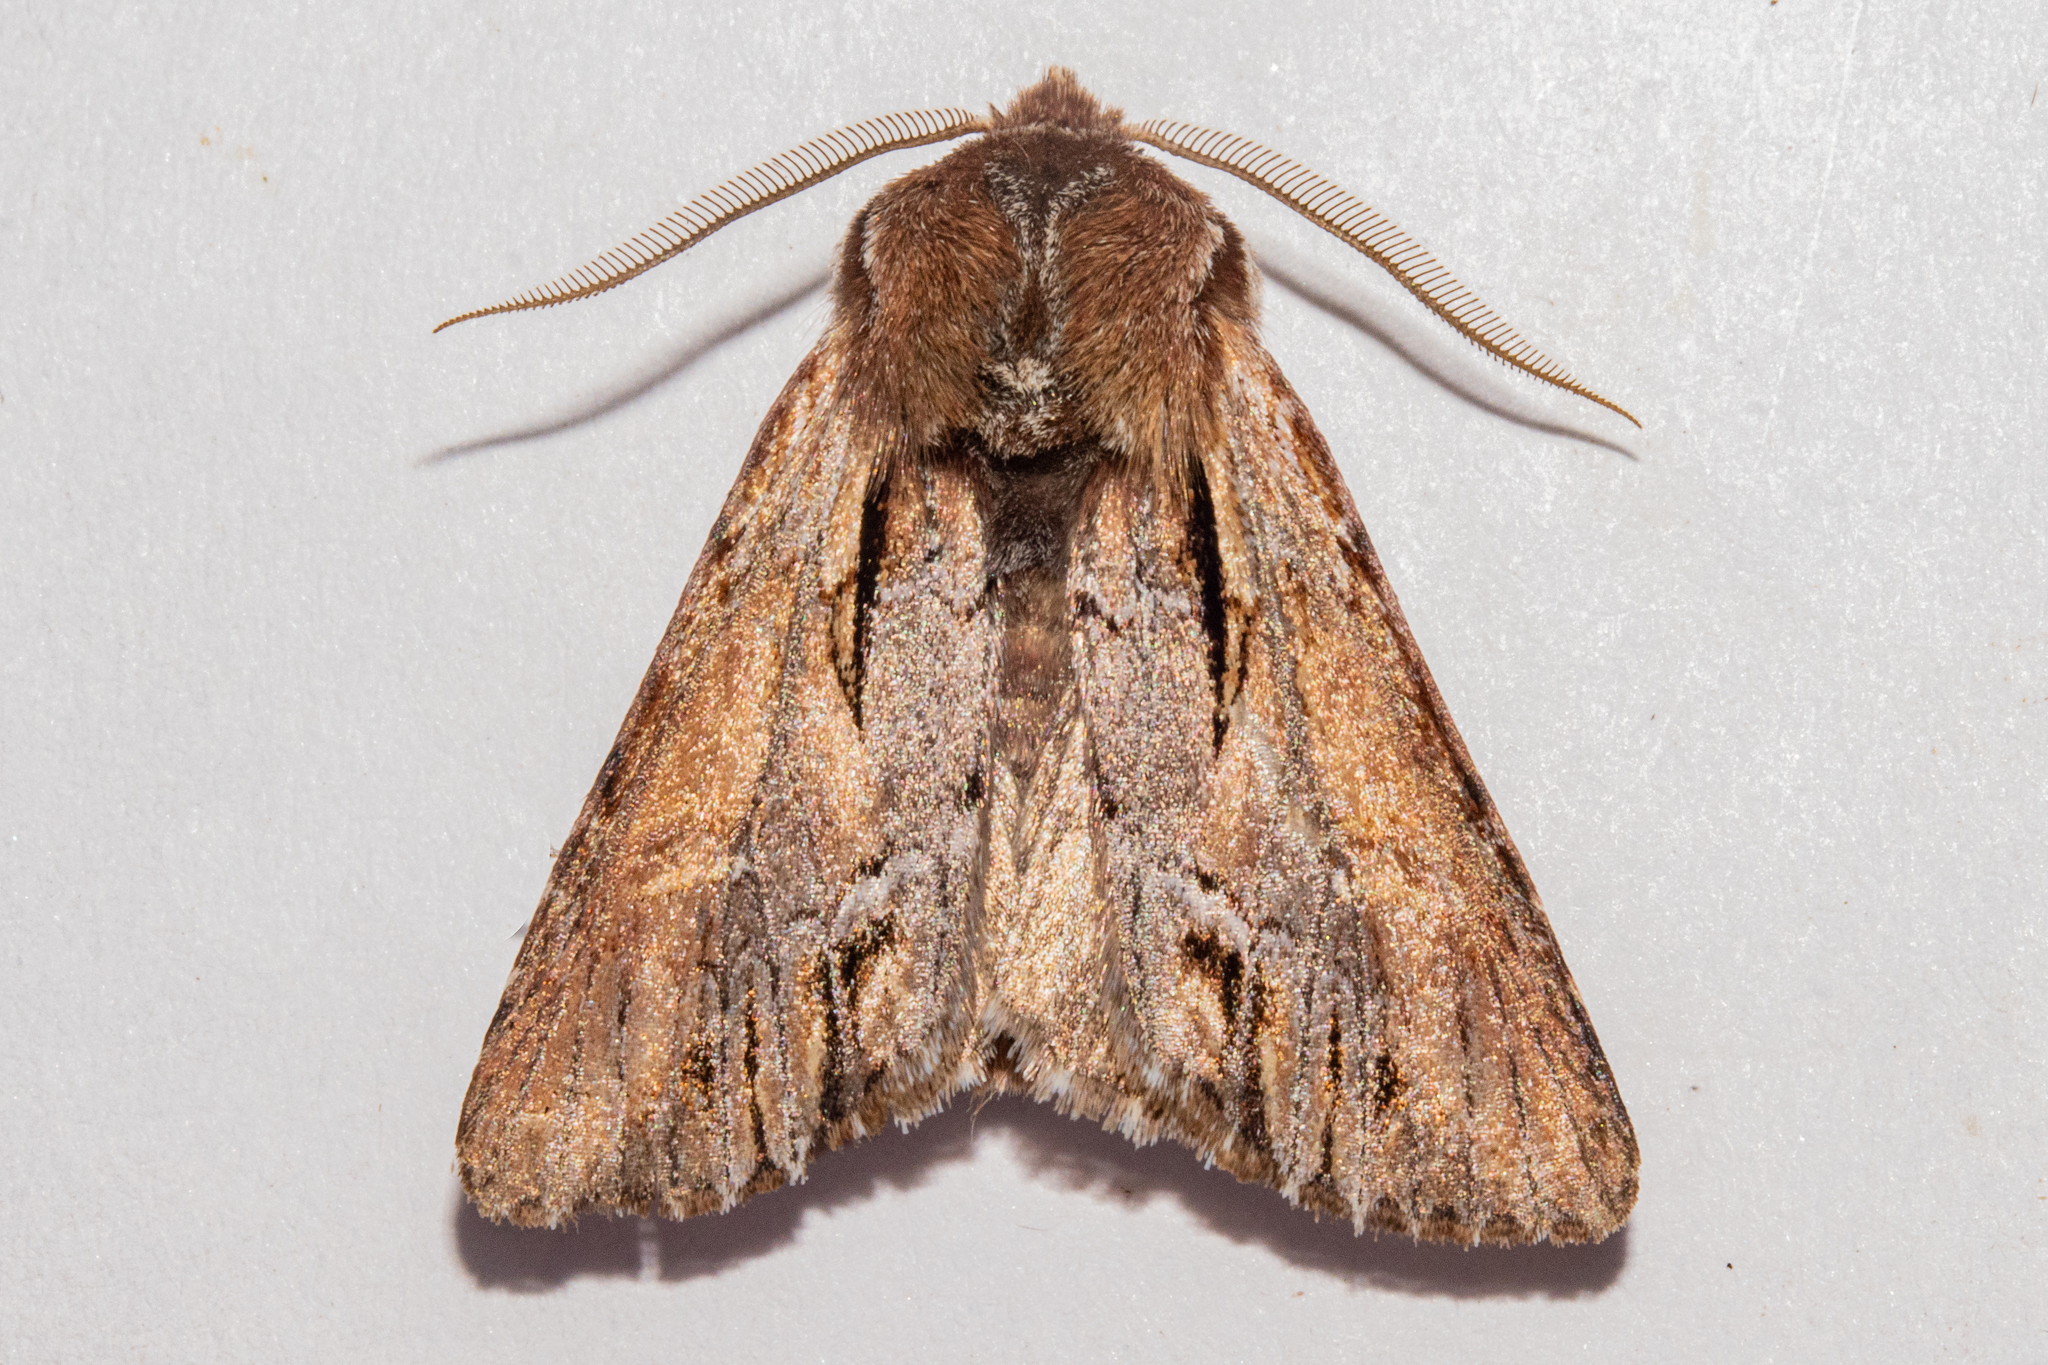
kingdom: Animalia
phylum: Arthropoda
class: Insecta
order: Lepidoptera
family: Noctuidae
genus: Ichneutica
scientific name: Ichneutica
